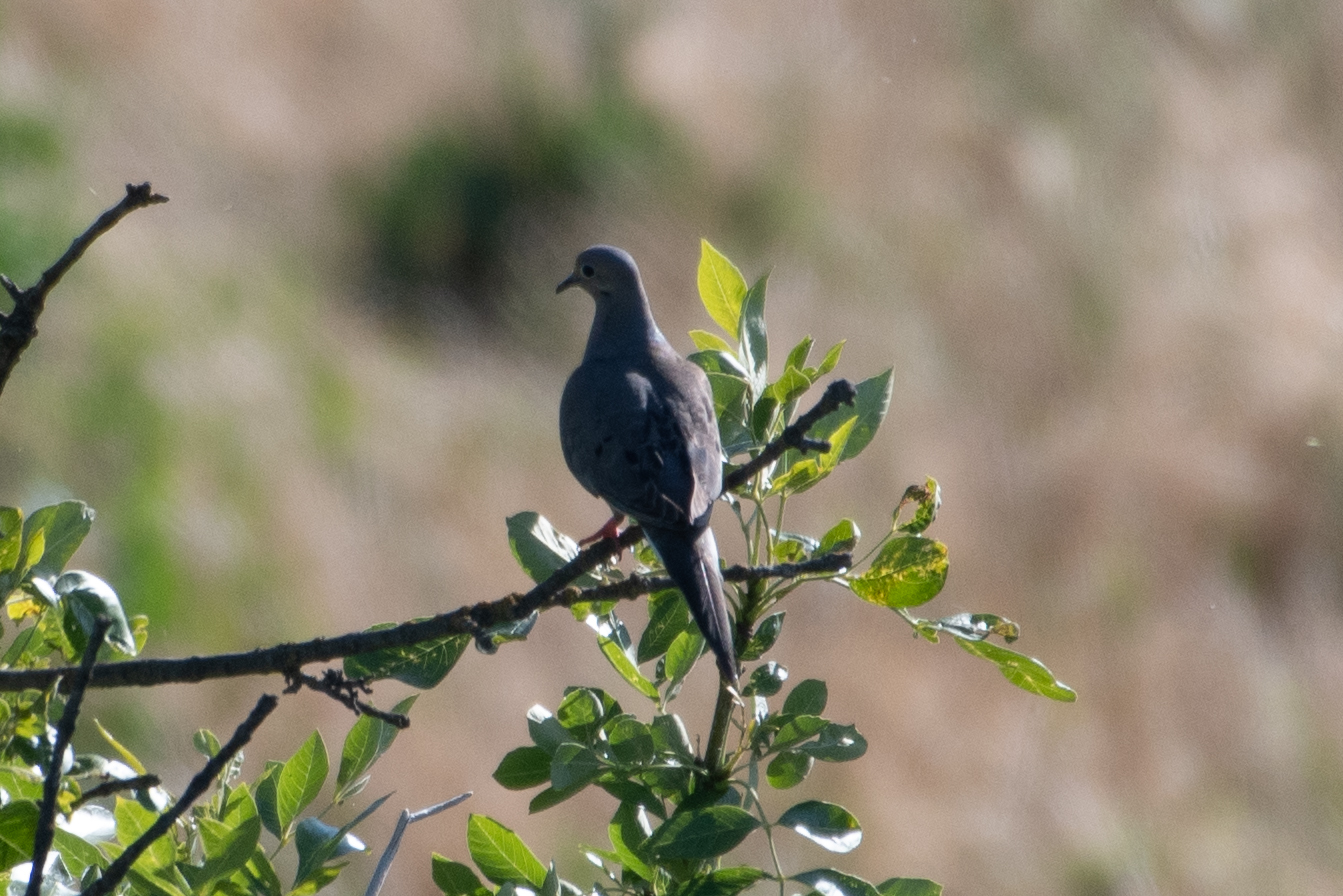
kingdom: Animalia
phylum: Chordata
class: Aves
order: Columbiformes
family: Columbidae
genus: Zenaida
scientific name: Zenaida macroura
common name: Mourning dove
